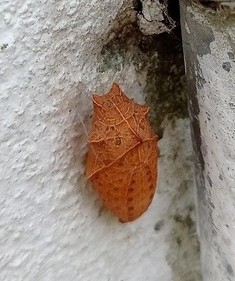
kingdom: Animalia
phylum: Arthropoda
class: Insecta
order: Lepidoptera
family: Papilionidae
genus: Iphiclides
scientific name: Iphiclides feisthamelii
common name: Iberian scarce swallowtail
